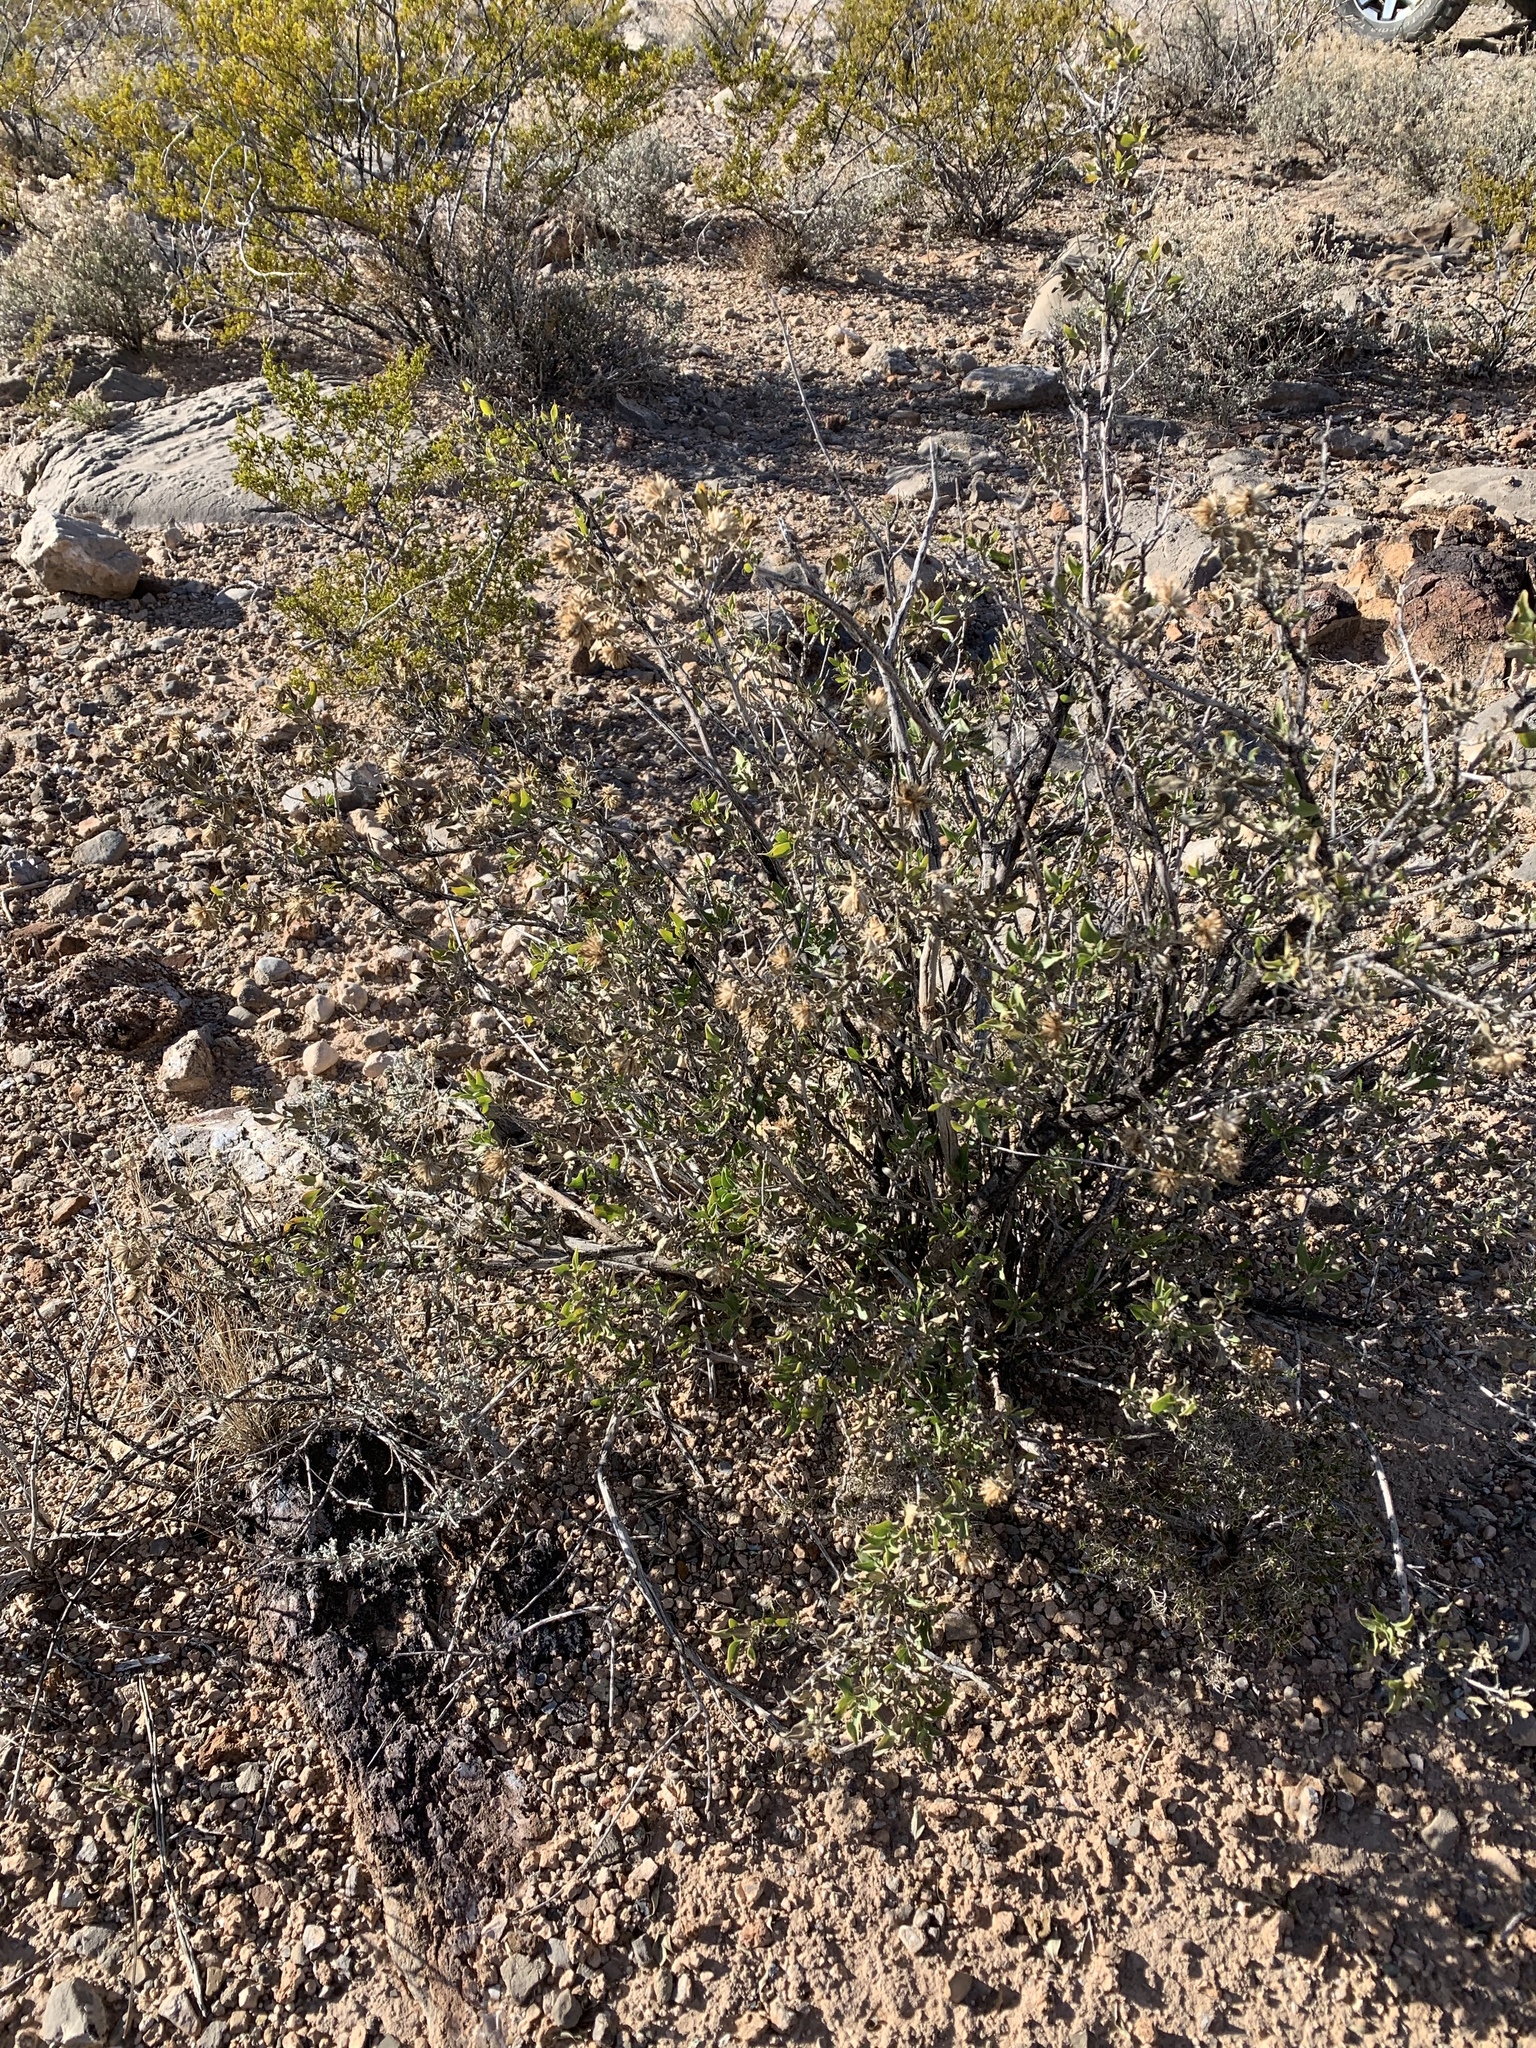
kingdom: Plantae
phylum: Tracheophyta
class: Magnoliopsida
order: Asterales
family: Asteraceae
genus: Flourensia
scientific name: Flourensia cernua
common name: Varnishbush
